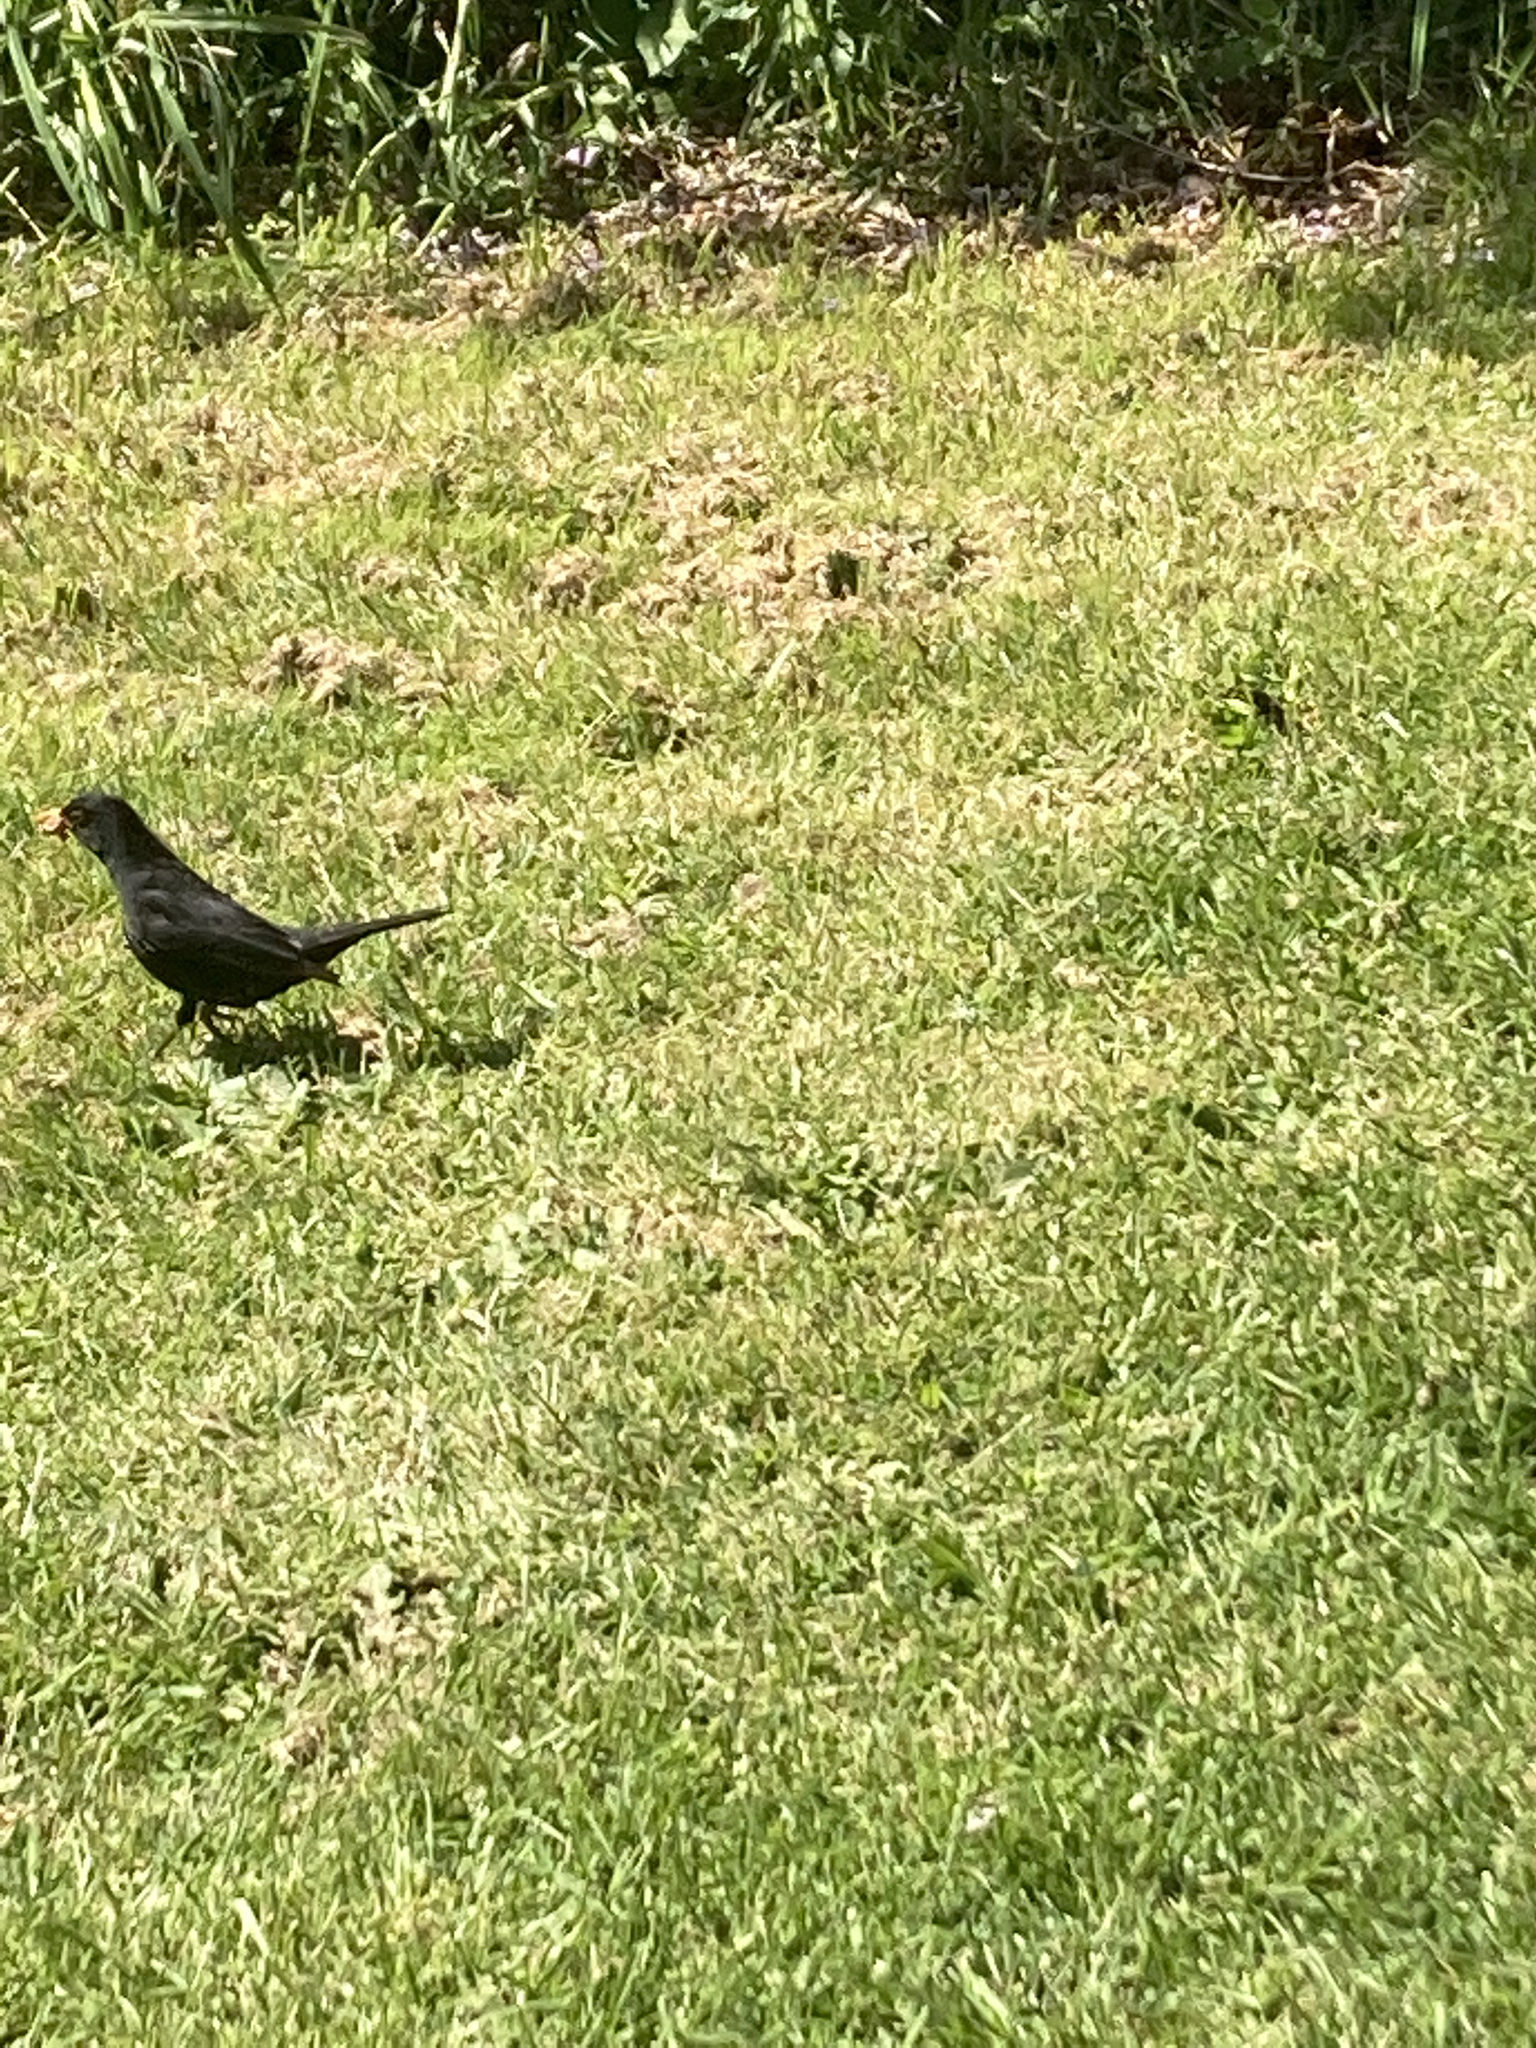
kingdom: Animalia
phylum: Chordata
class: Aves
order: Passeriformes
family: Turdidae
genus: Turdus
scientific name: Turdus merula
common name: Common blackbird
